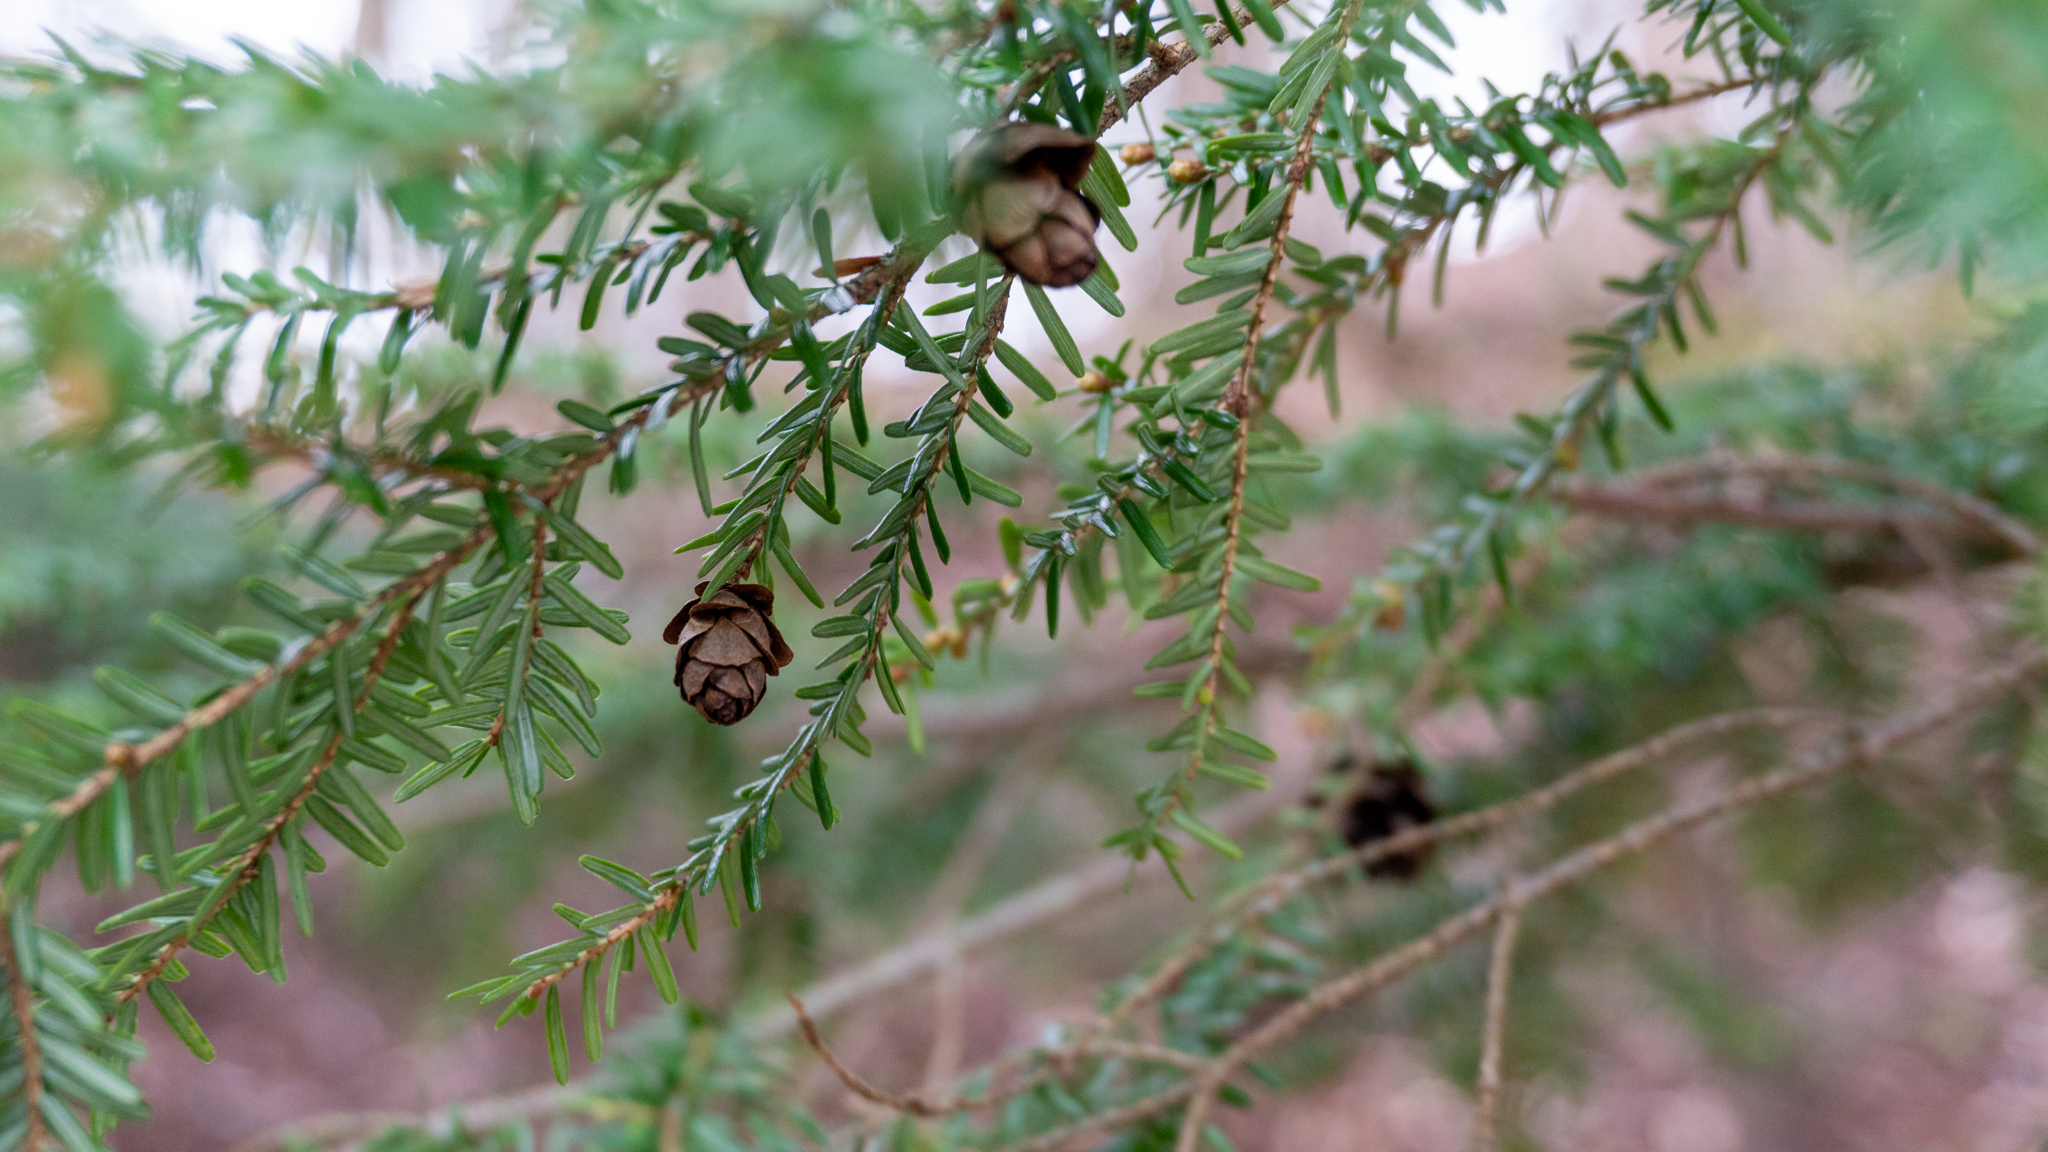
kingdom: Plantae
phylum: Tracheophyta
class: Pinopsida
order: Pinales
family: Pinaceae
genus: Tsuga
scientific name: Tsuga canadensis
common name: Eastern hemlock
